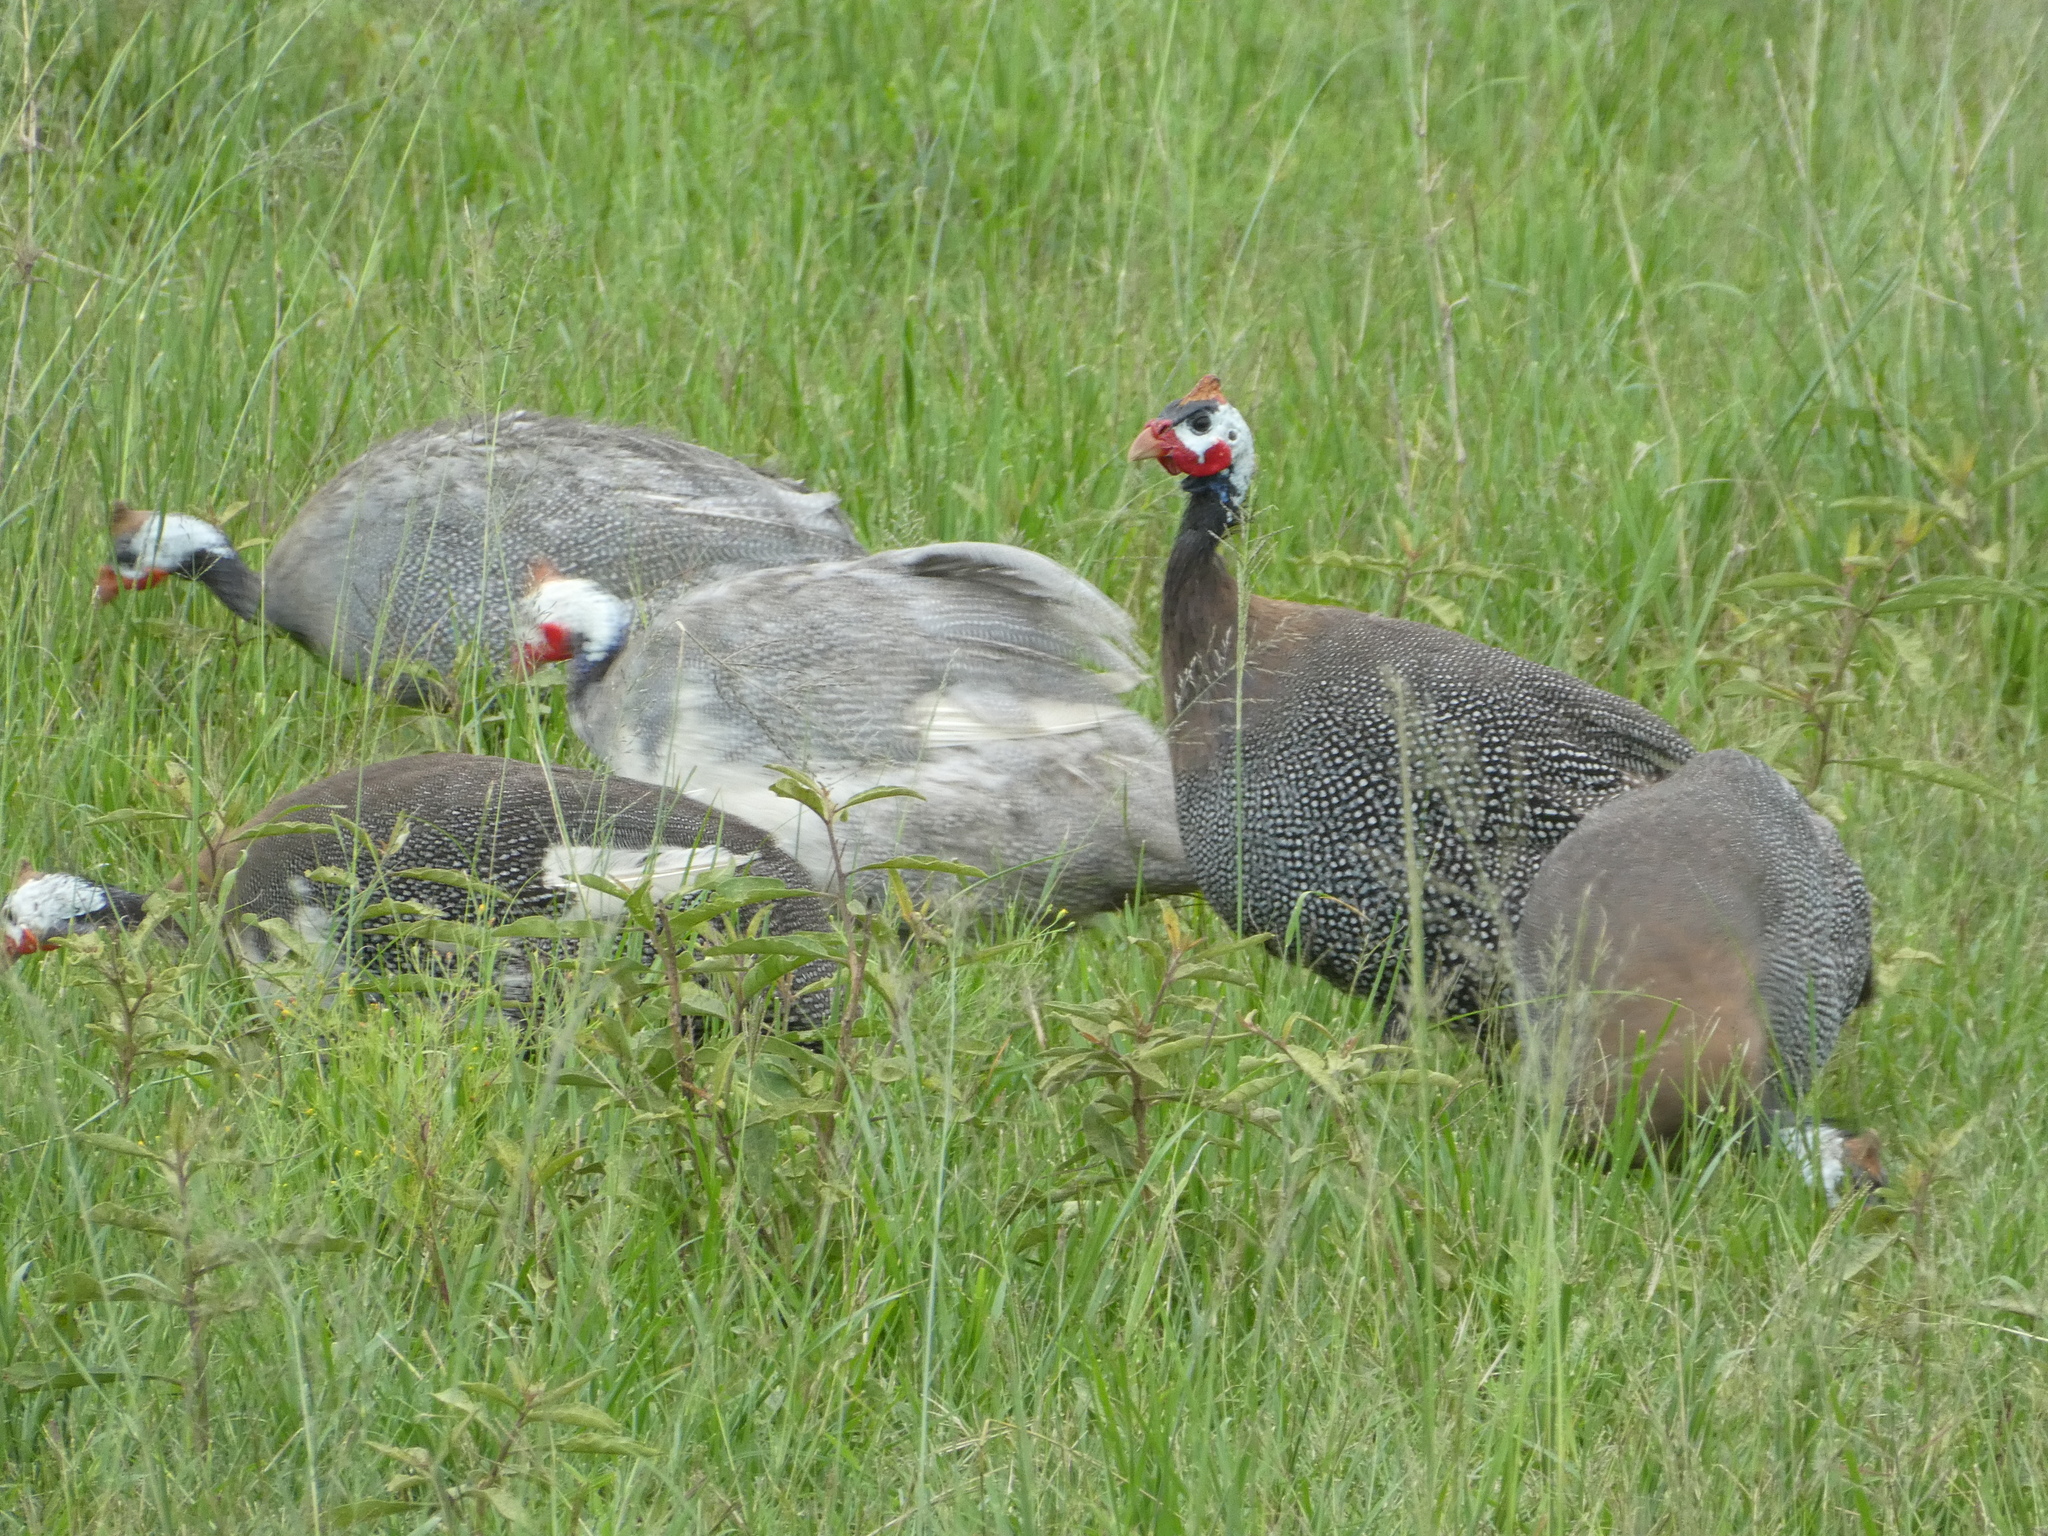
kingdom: Animalia
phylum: Chordata
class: Aves
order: Galliformes
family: Numididae
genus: Numida
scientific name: Numida meleagris
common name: Helmeted guineafowl
